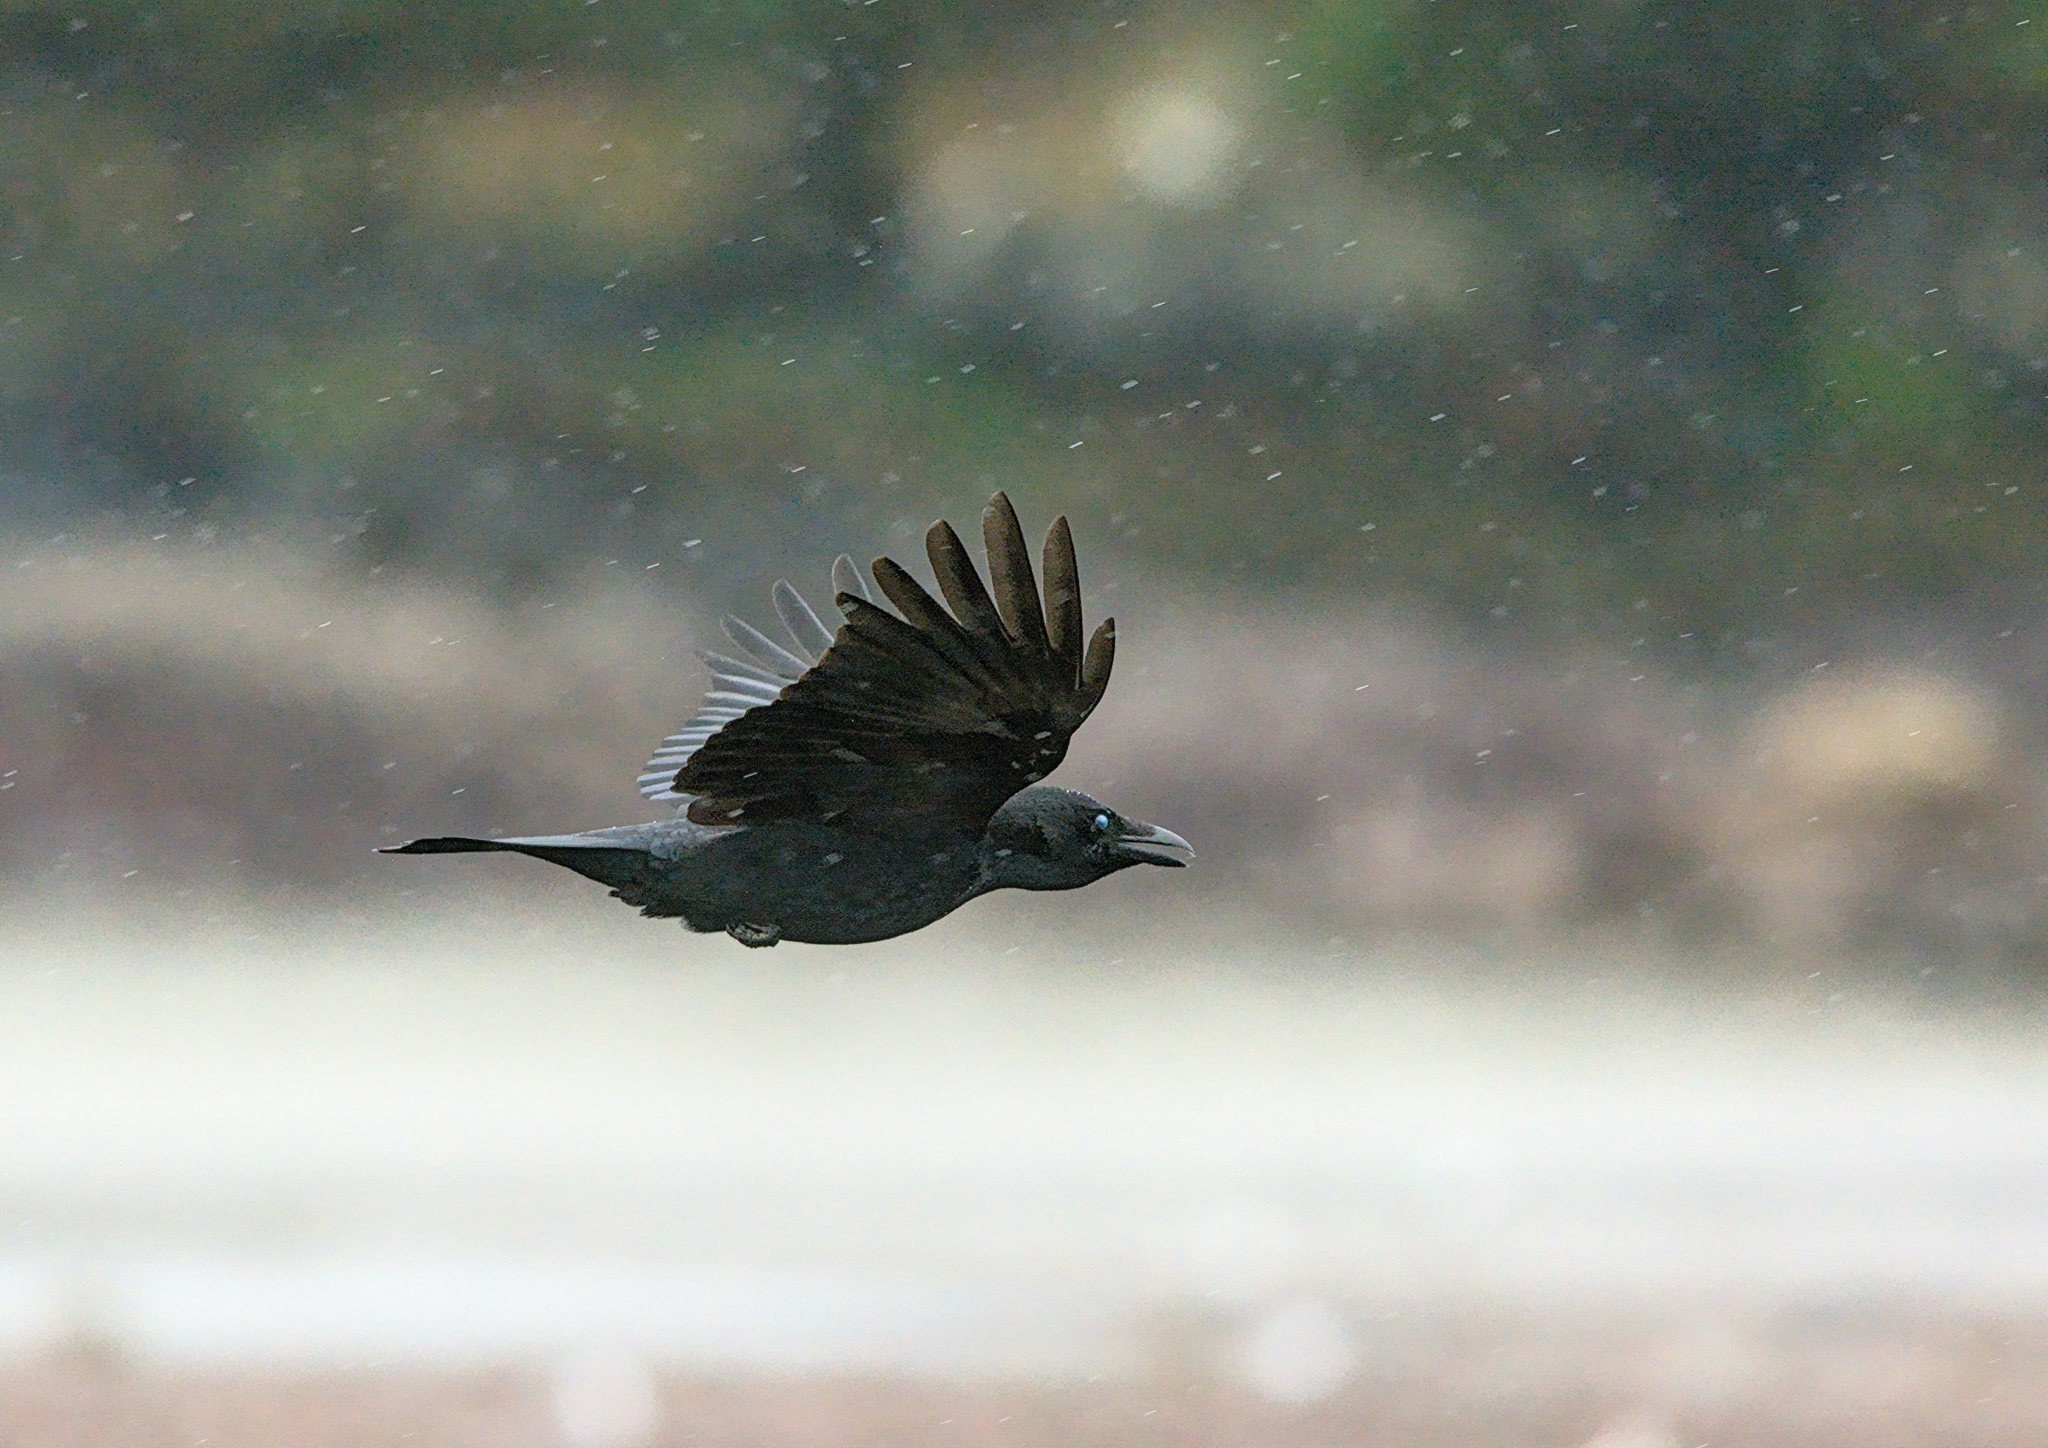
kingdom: Animalia
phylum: Chordata
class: Aves
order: Passeriformes
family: Corvidae
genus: Corvus
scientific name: Corvus corone
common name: Carrion crow
